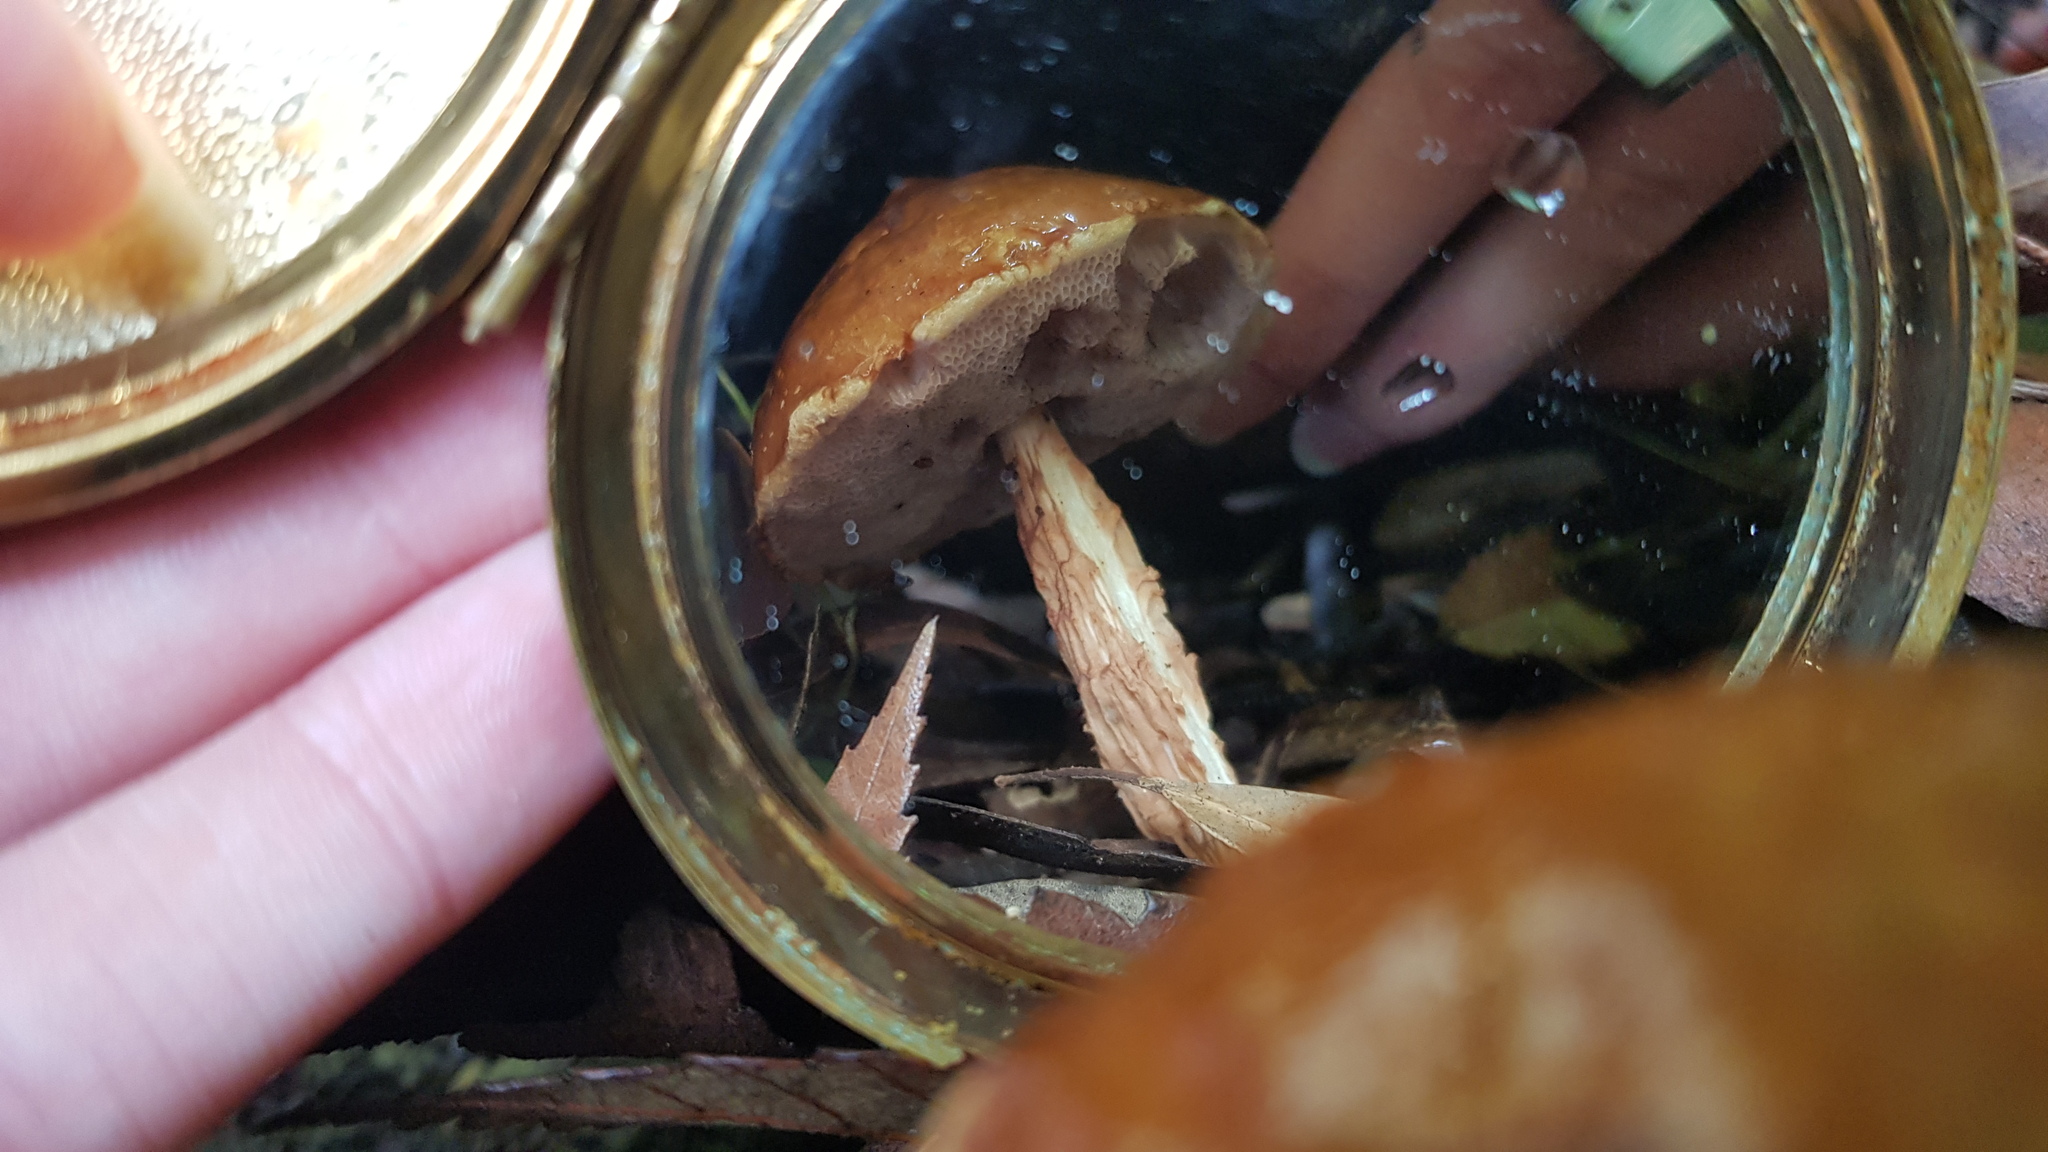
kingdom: Fungi
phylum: Basidiomycota
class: Agaricomycetes
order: Boletales
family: Boletaceae
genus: Austroboletus
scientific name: Austroboletus lacunosus
